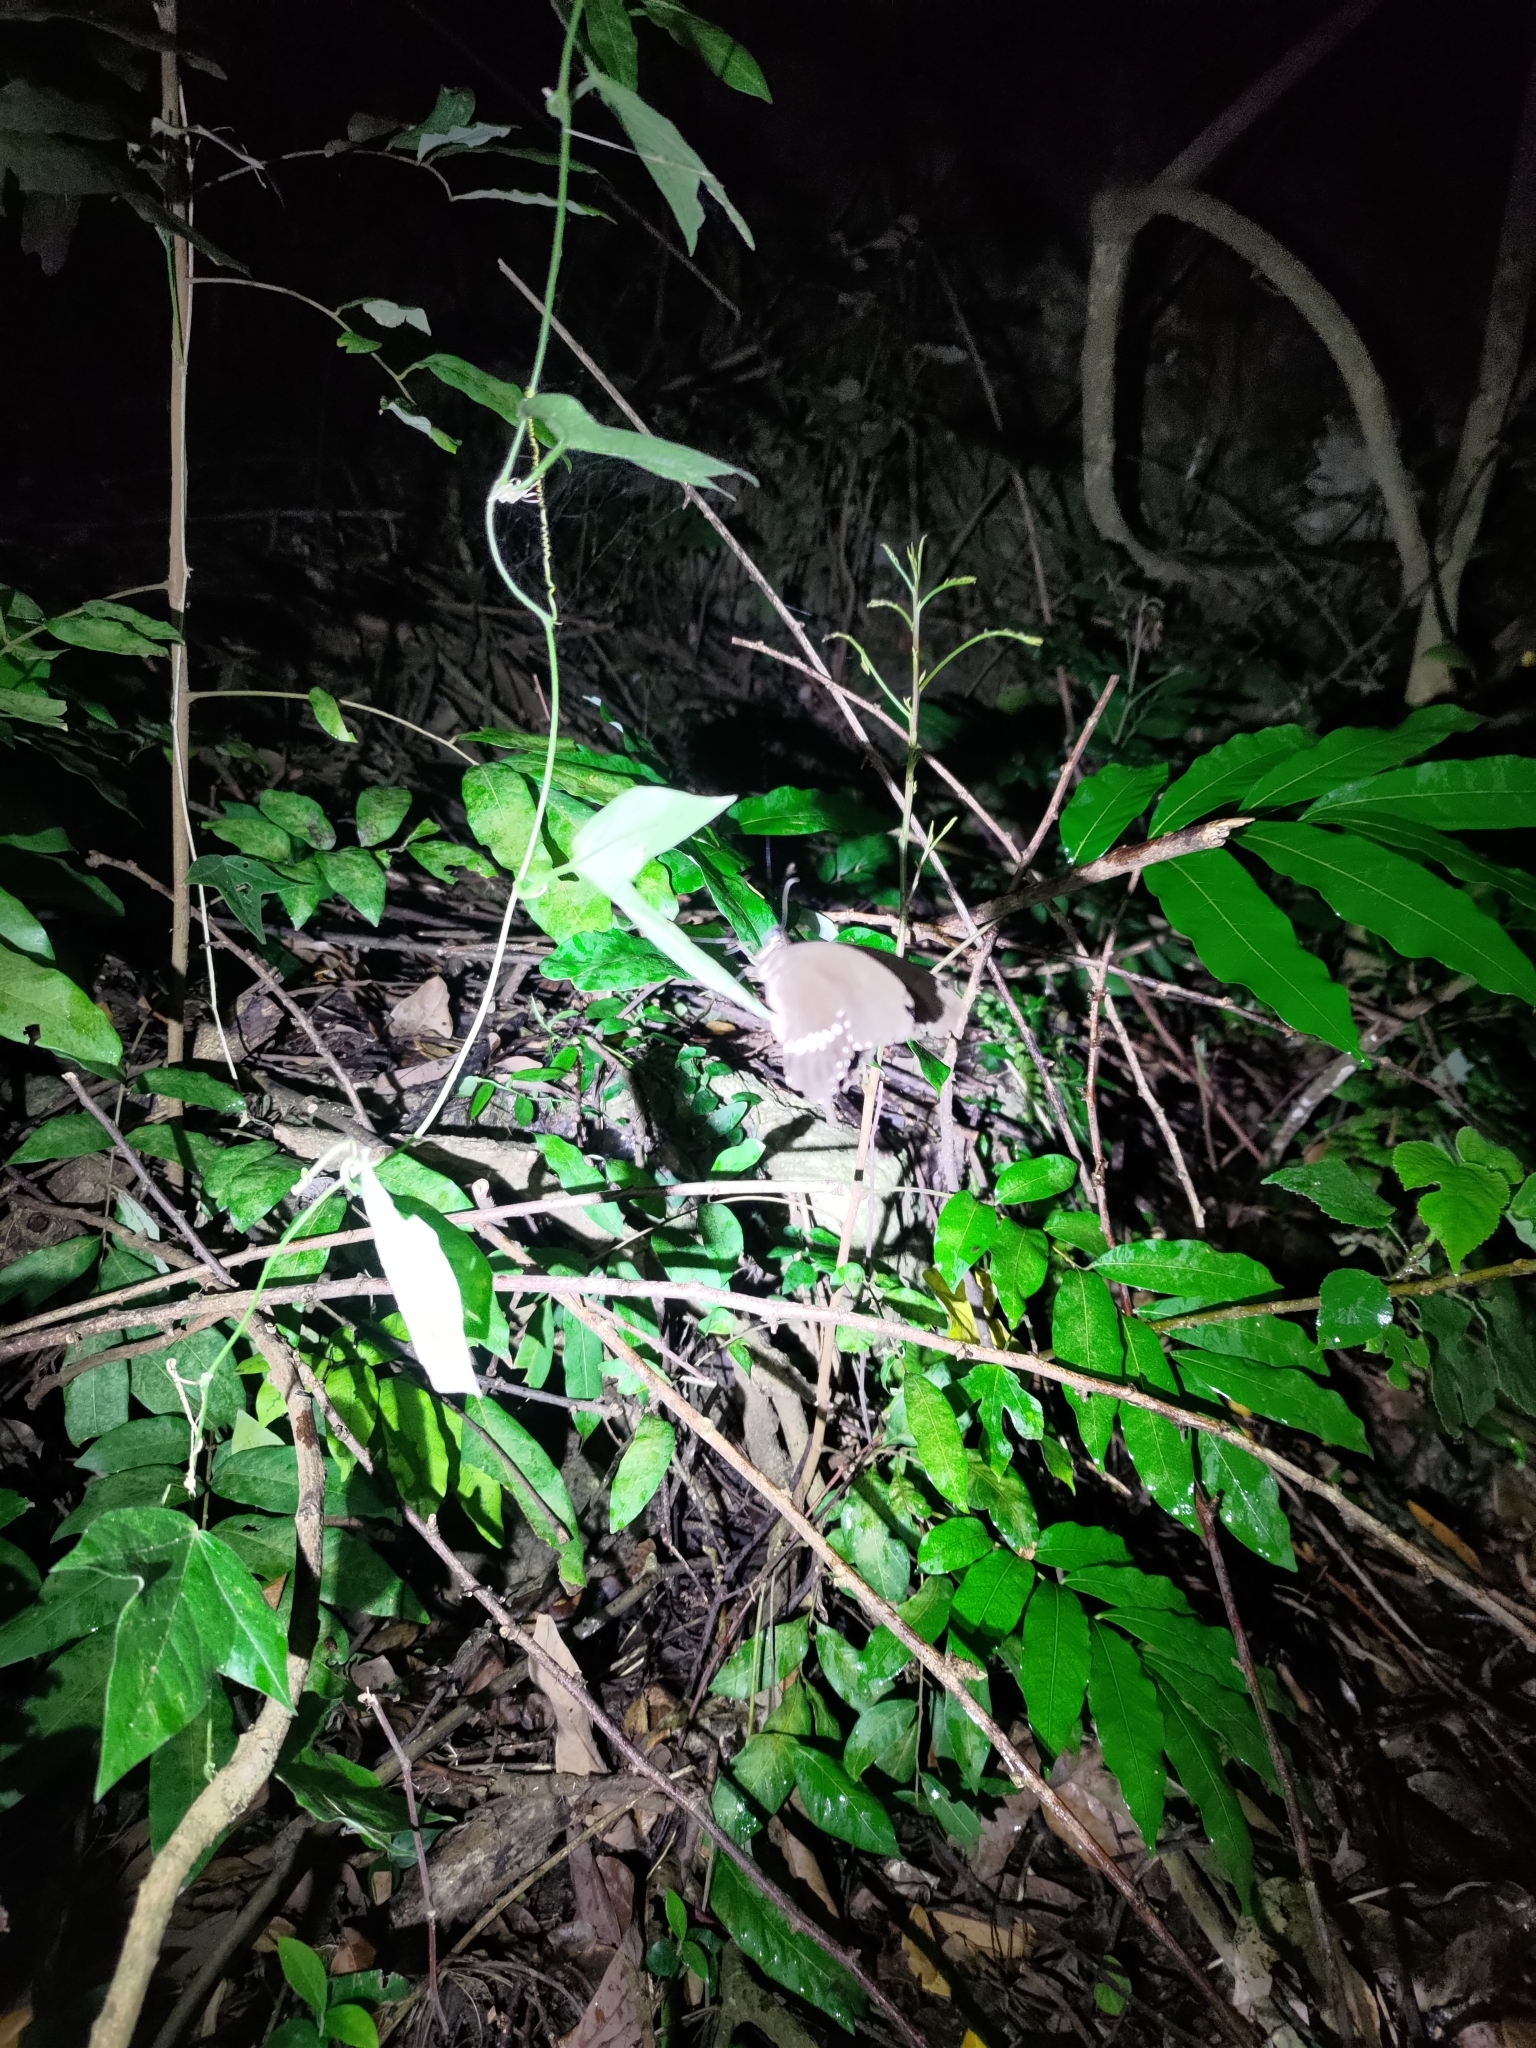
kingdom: Animalia
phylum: Arthropoda
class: Insecta
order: Lepidoptera
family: Papilionidae
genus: Papilio
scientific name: Papilio polytes
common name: Common mormon
